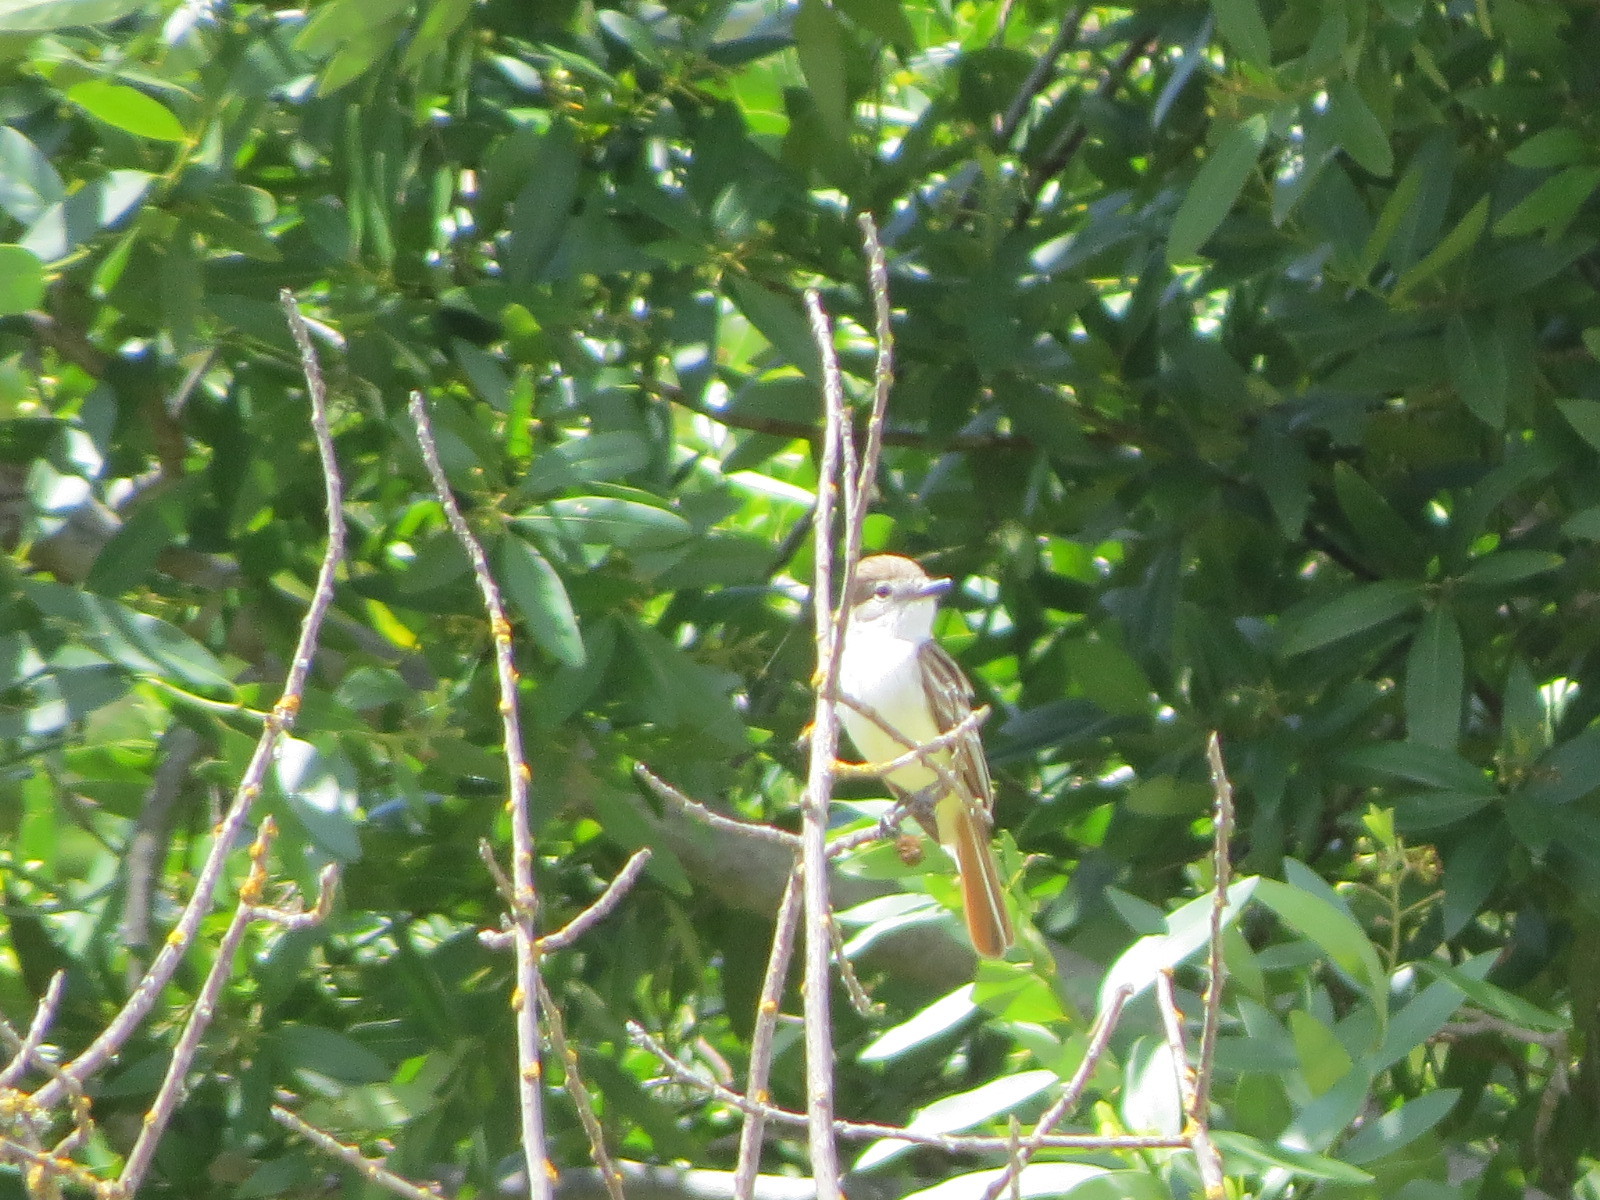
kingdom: Animalia
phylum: Chordata
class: Aves
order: Passeriformes
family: Tyrannidae
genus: Myiarchus
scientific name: Myiarchus cinerascens
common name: Ash-throated flycatcher
